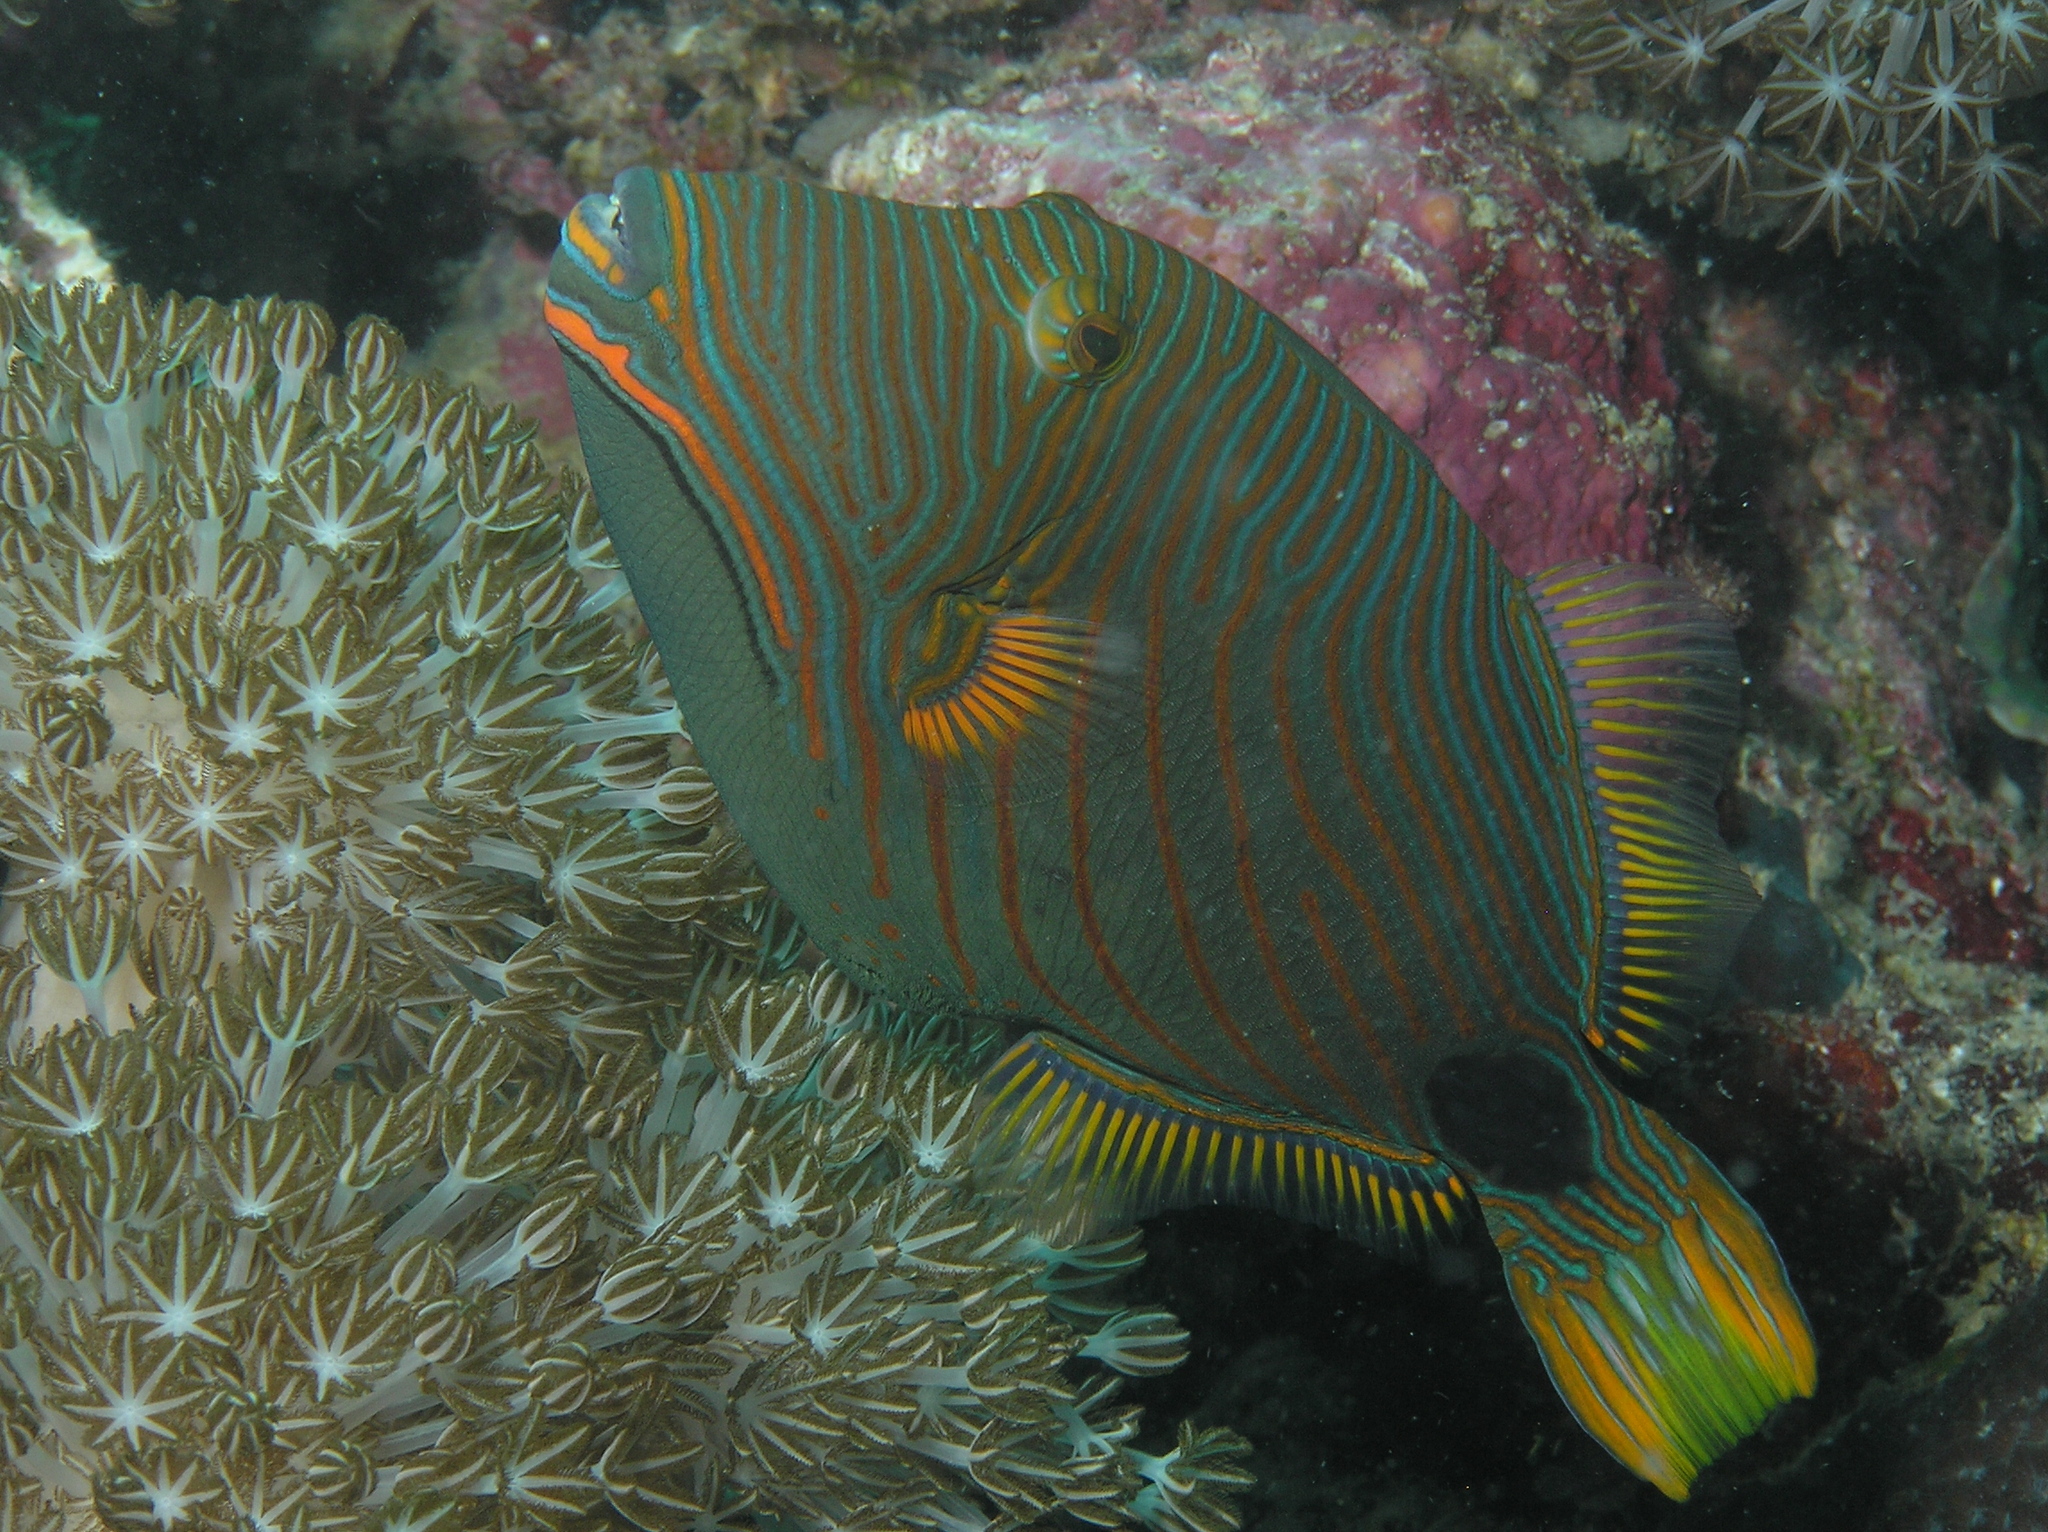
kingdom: Animalia
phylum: Chordata
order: Tetraodontiformes
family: Balistidae
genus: Balistapus
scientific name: Balistapus undulatus
